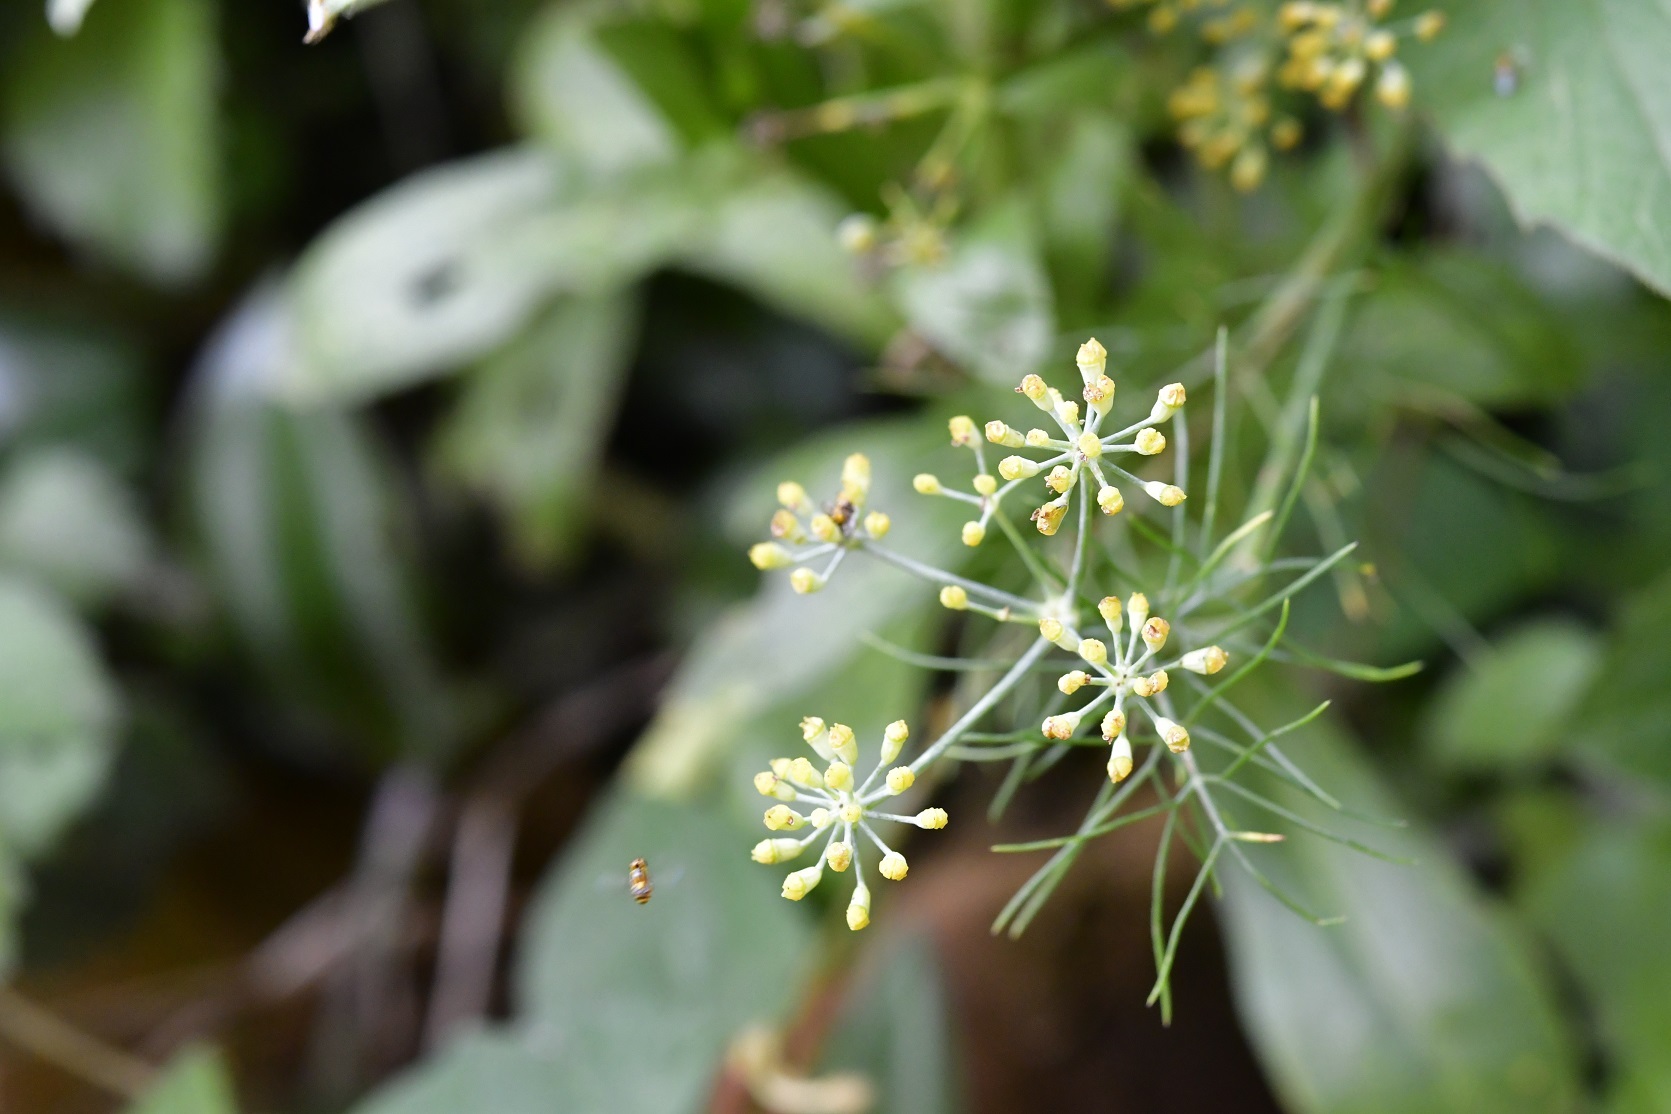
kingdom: Plantae
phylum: Tracheophyta
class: Magnoliopsida
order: Apiales
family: Apiaceae
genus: Prionosciadium
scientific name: Prionosciadium nelsonii
